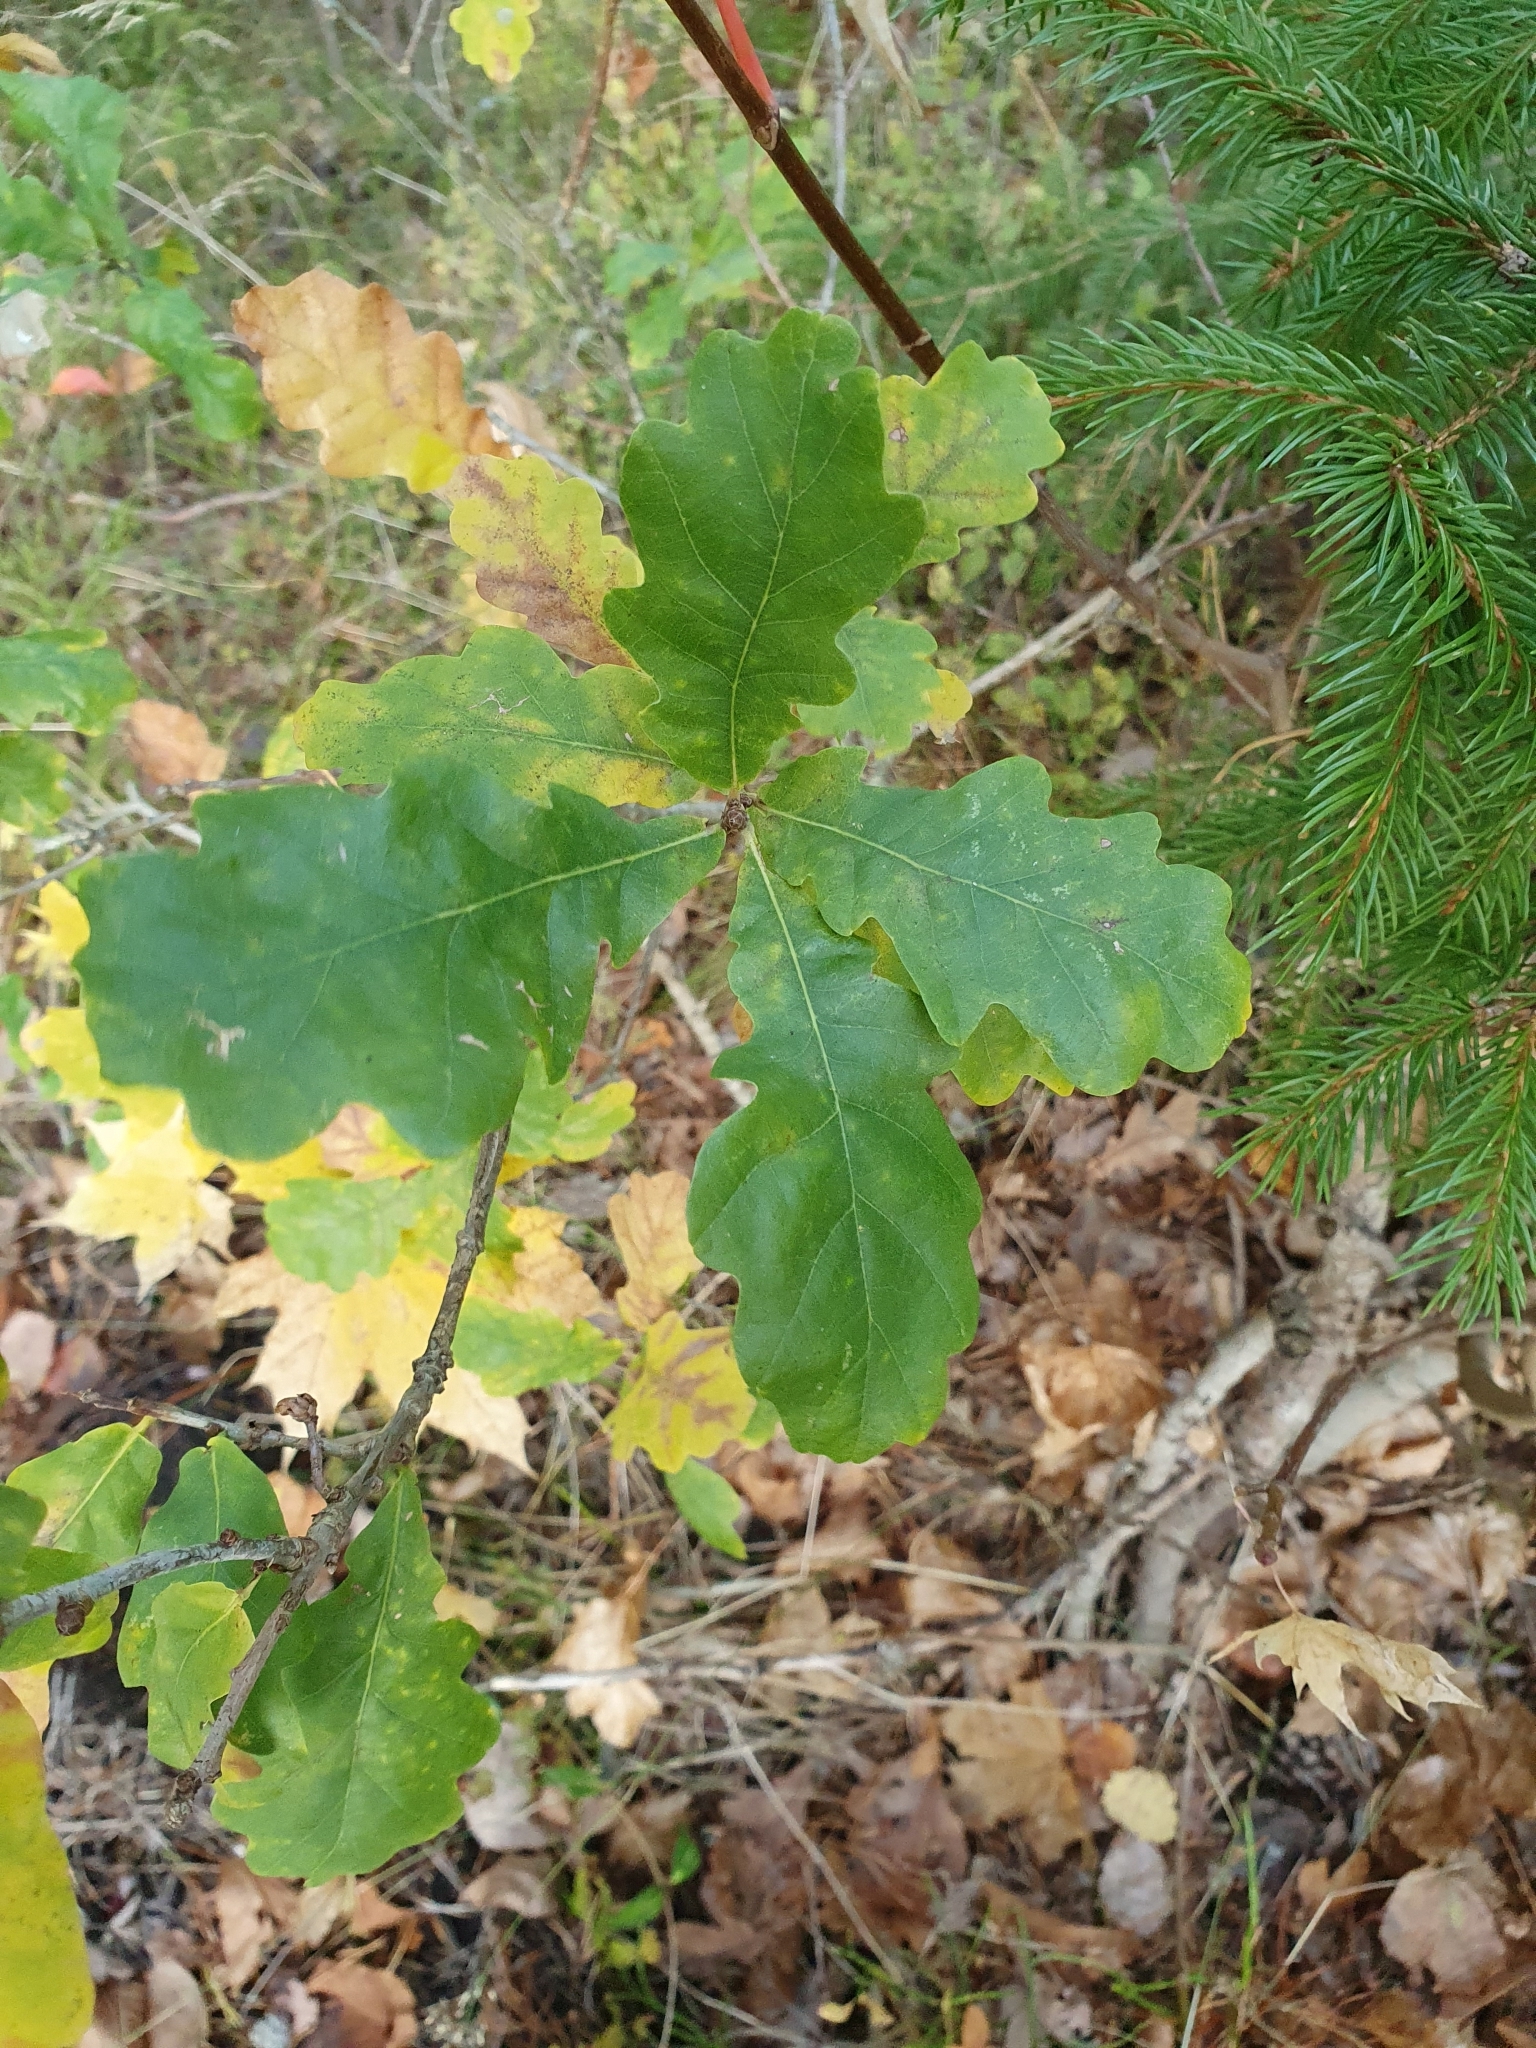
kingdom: Plantae
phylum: Tracheophyta
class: Magnoliopsida
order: Fagales
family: Fagaceae
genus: Quercus
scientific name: Quercus robur
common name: Pedunculate oak
